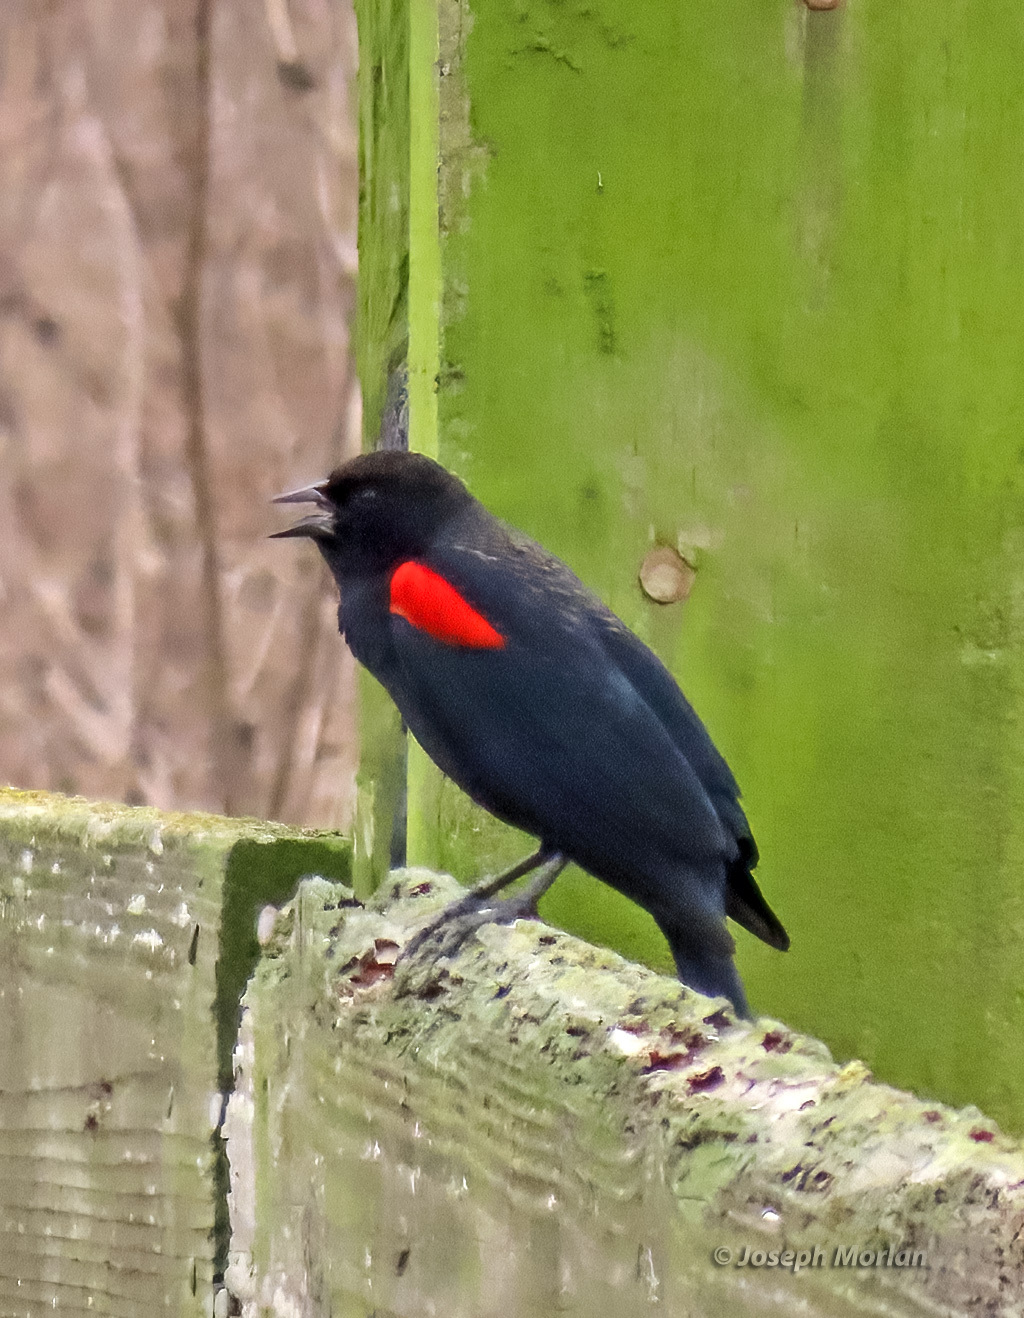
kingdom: Animalia
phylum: Chordata
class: Aves
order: Passeriformes
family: Icteridae
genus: Agelaius
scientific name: Agelaius phoeniceus
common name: Red-winged blackbird
